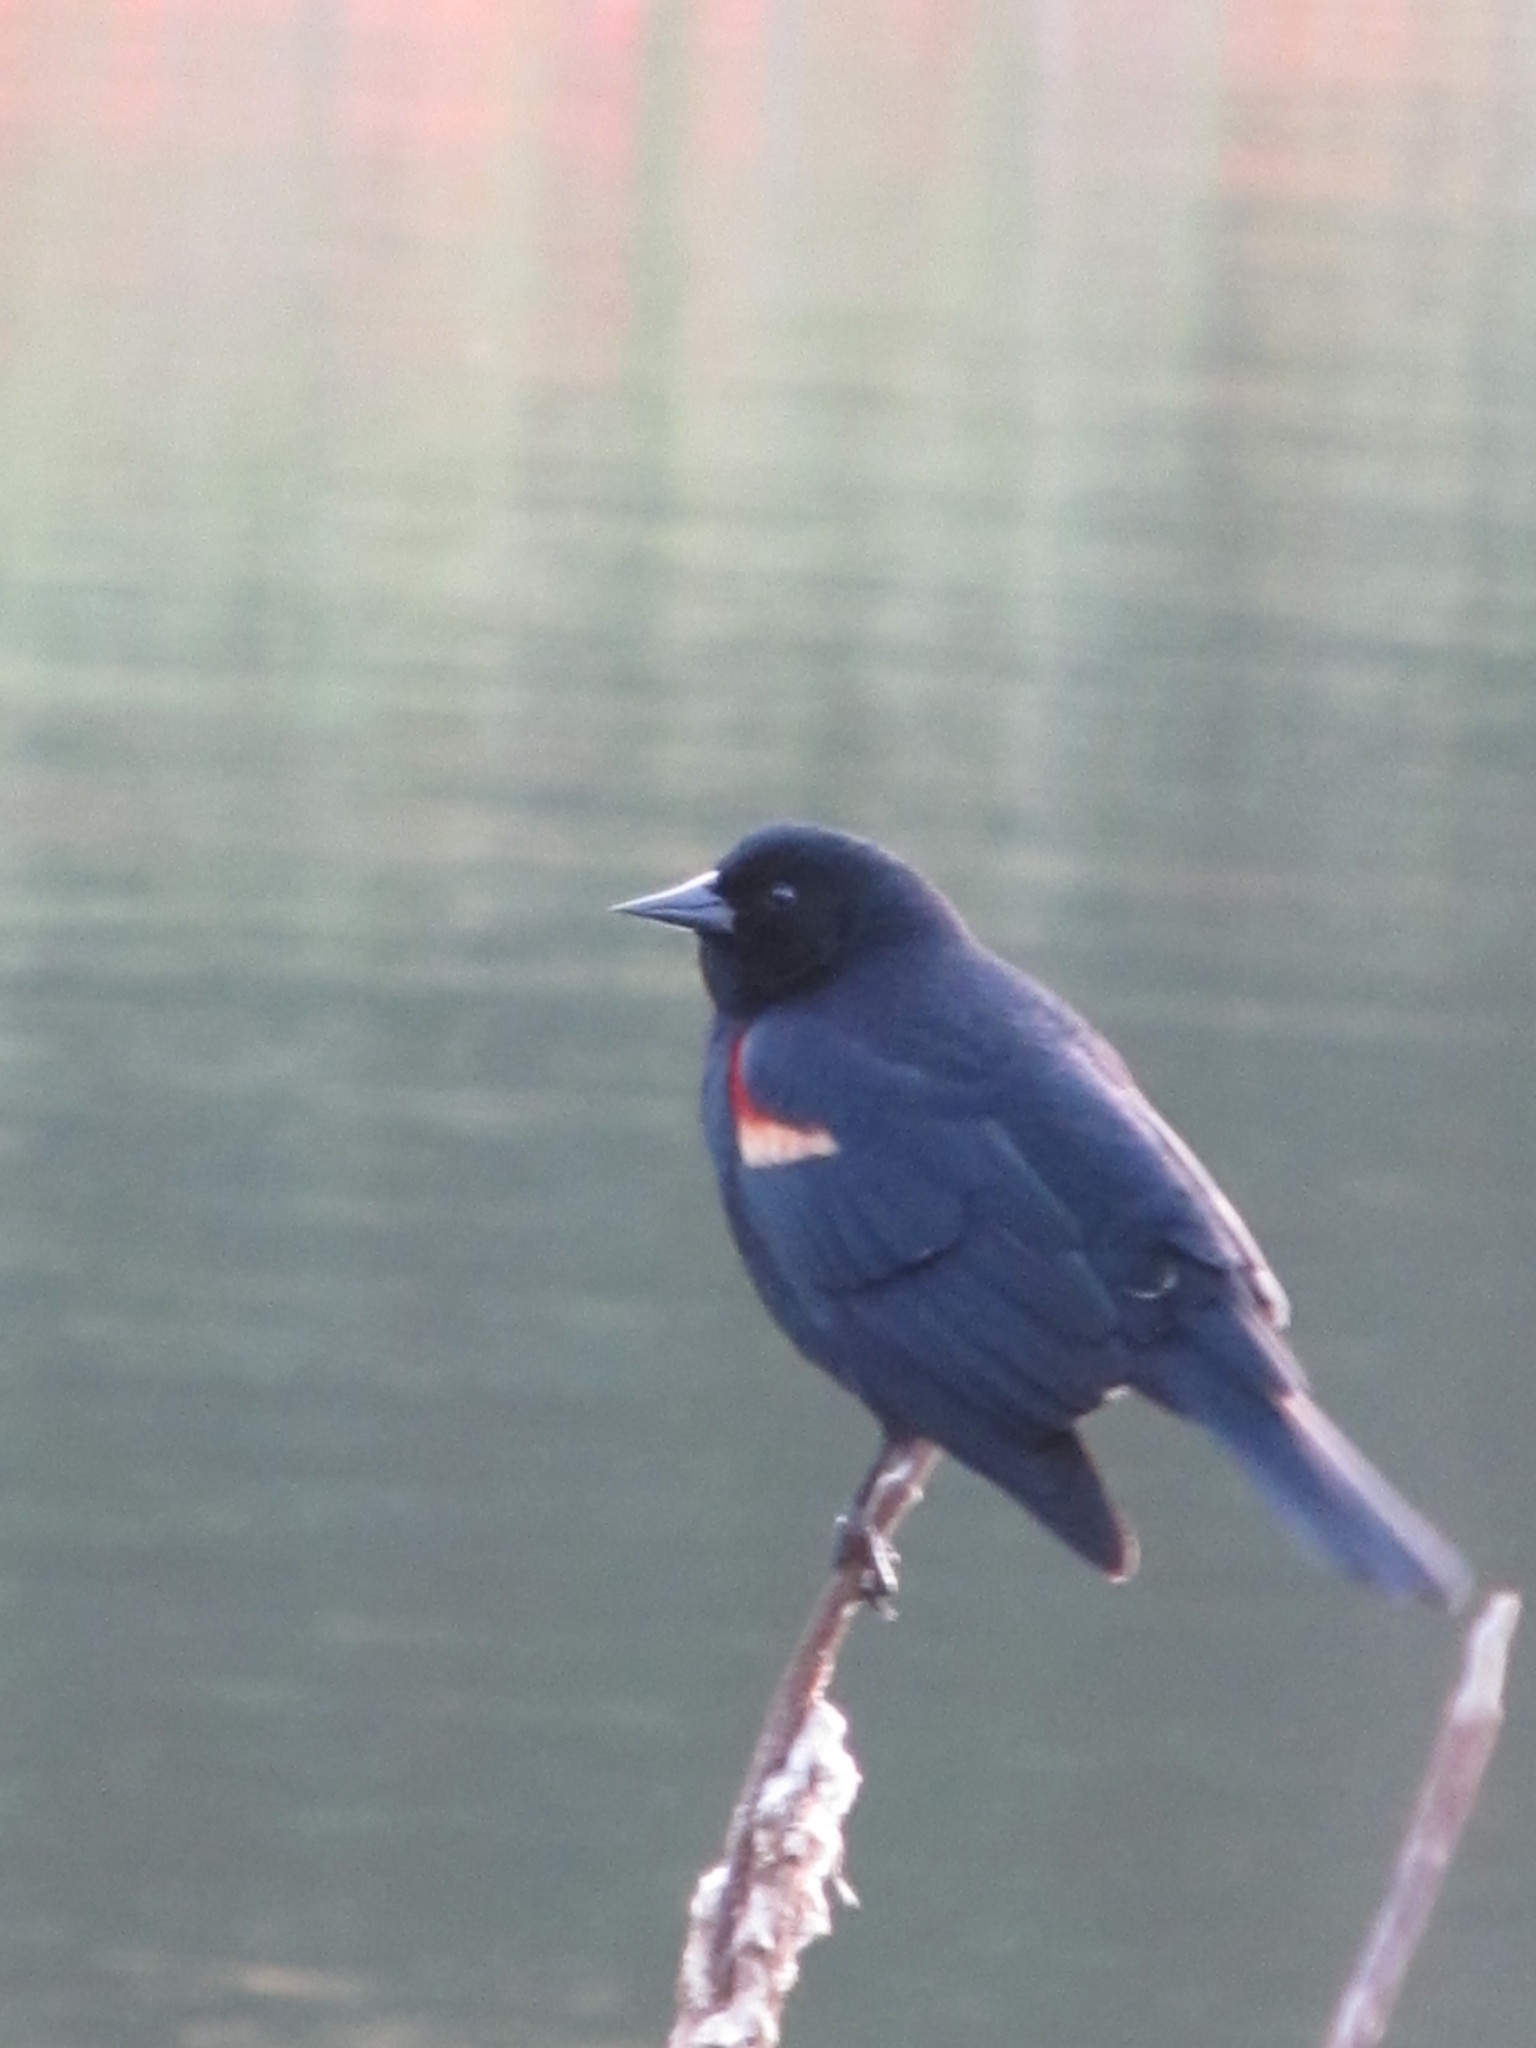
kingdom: Animalia
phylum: Chordata
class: Aves
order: Passeriformes
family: Icteridae
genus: Agelaius
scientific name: Agelaius phoeniceus
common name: Red-winged blackbird
